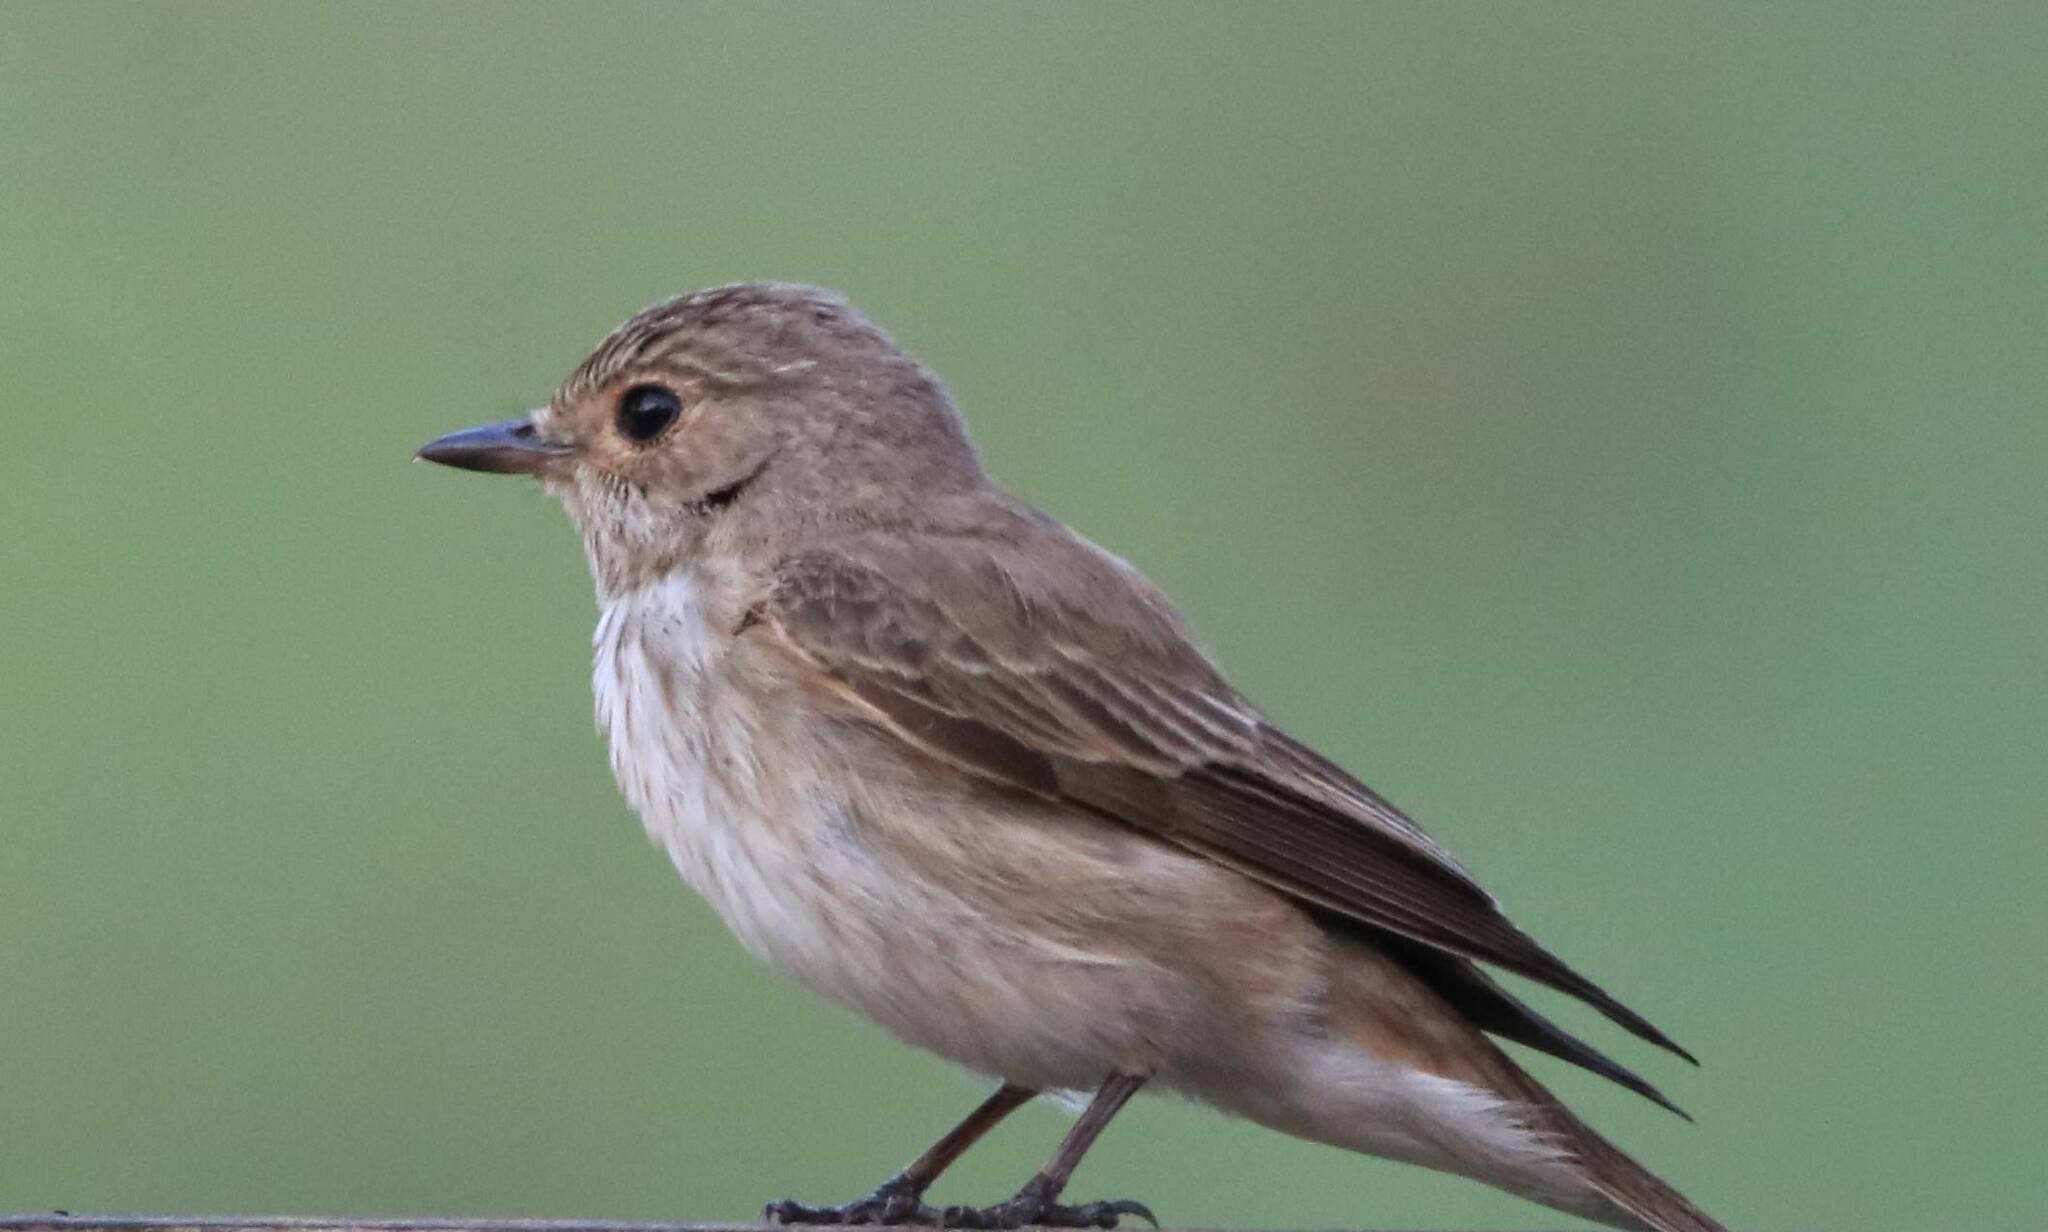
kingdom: Animalia
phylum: Chordata
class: Aves
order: Passeriformes
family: Muscicapidae
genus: Muscicapa
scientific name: Muscicapa striata
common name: Spotted flycatcher
